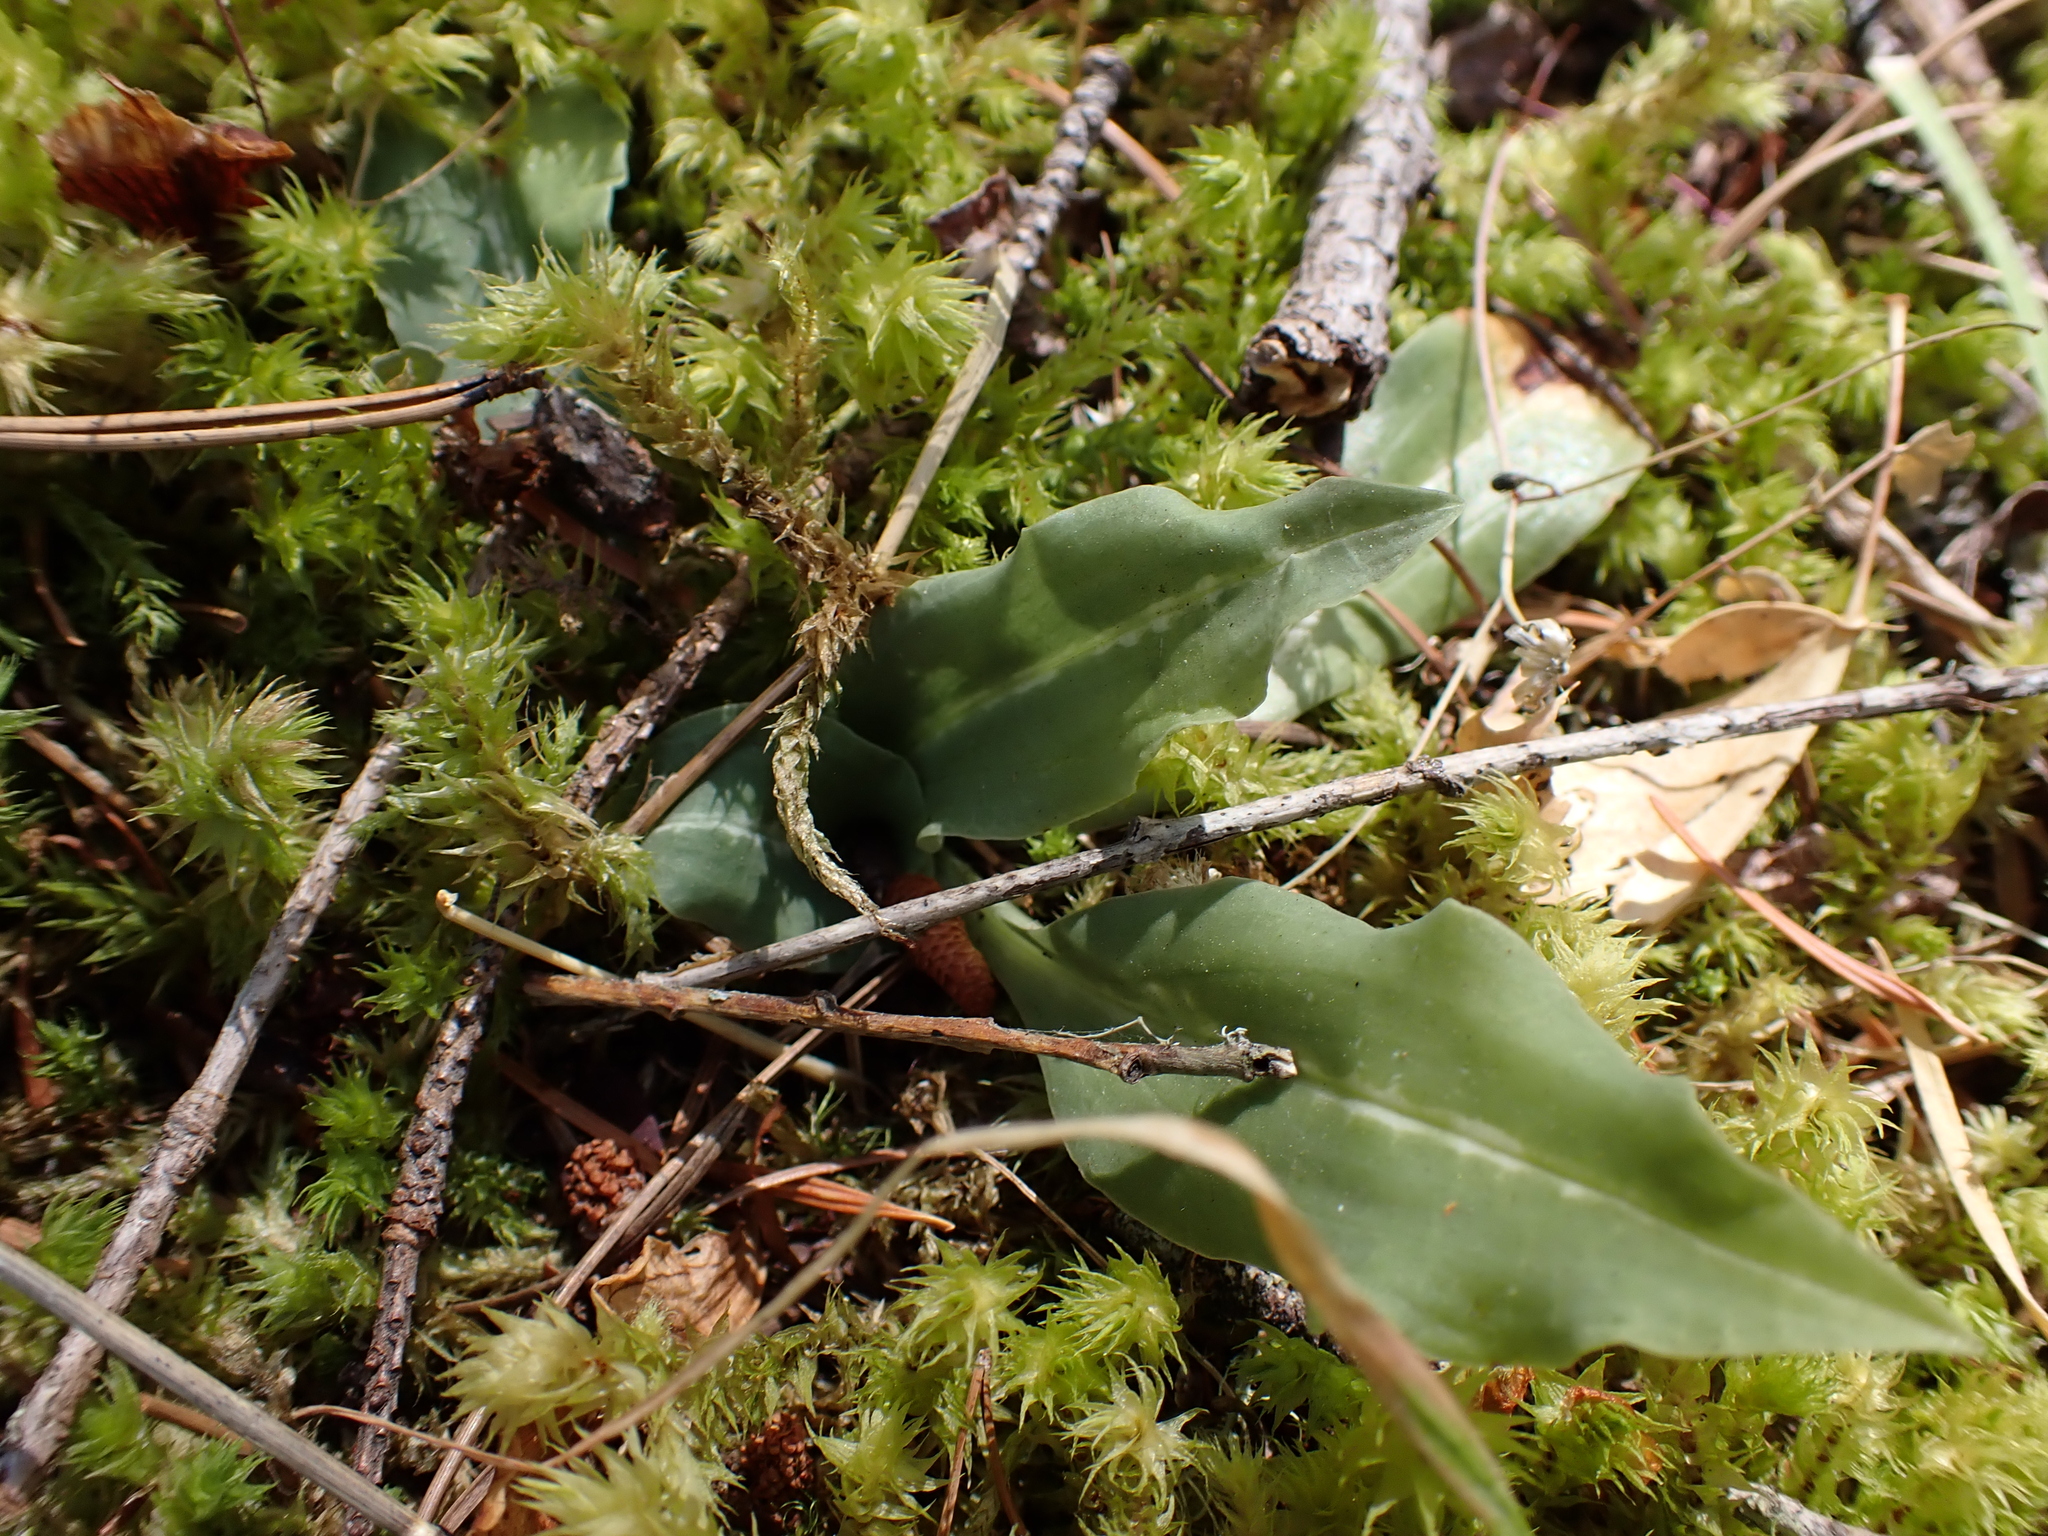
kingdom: Plantae
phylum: Tracheophyta
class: Liliopsida
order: Asparagales
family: Orchidaceae
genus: Goodyera
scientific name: Goodyera oblongifolia
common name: Giant rattlesnake-plantain
